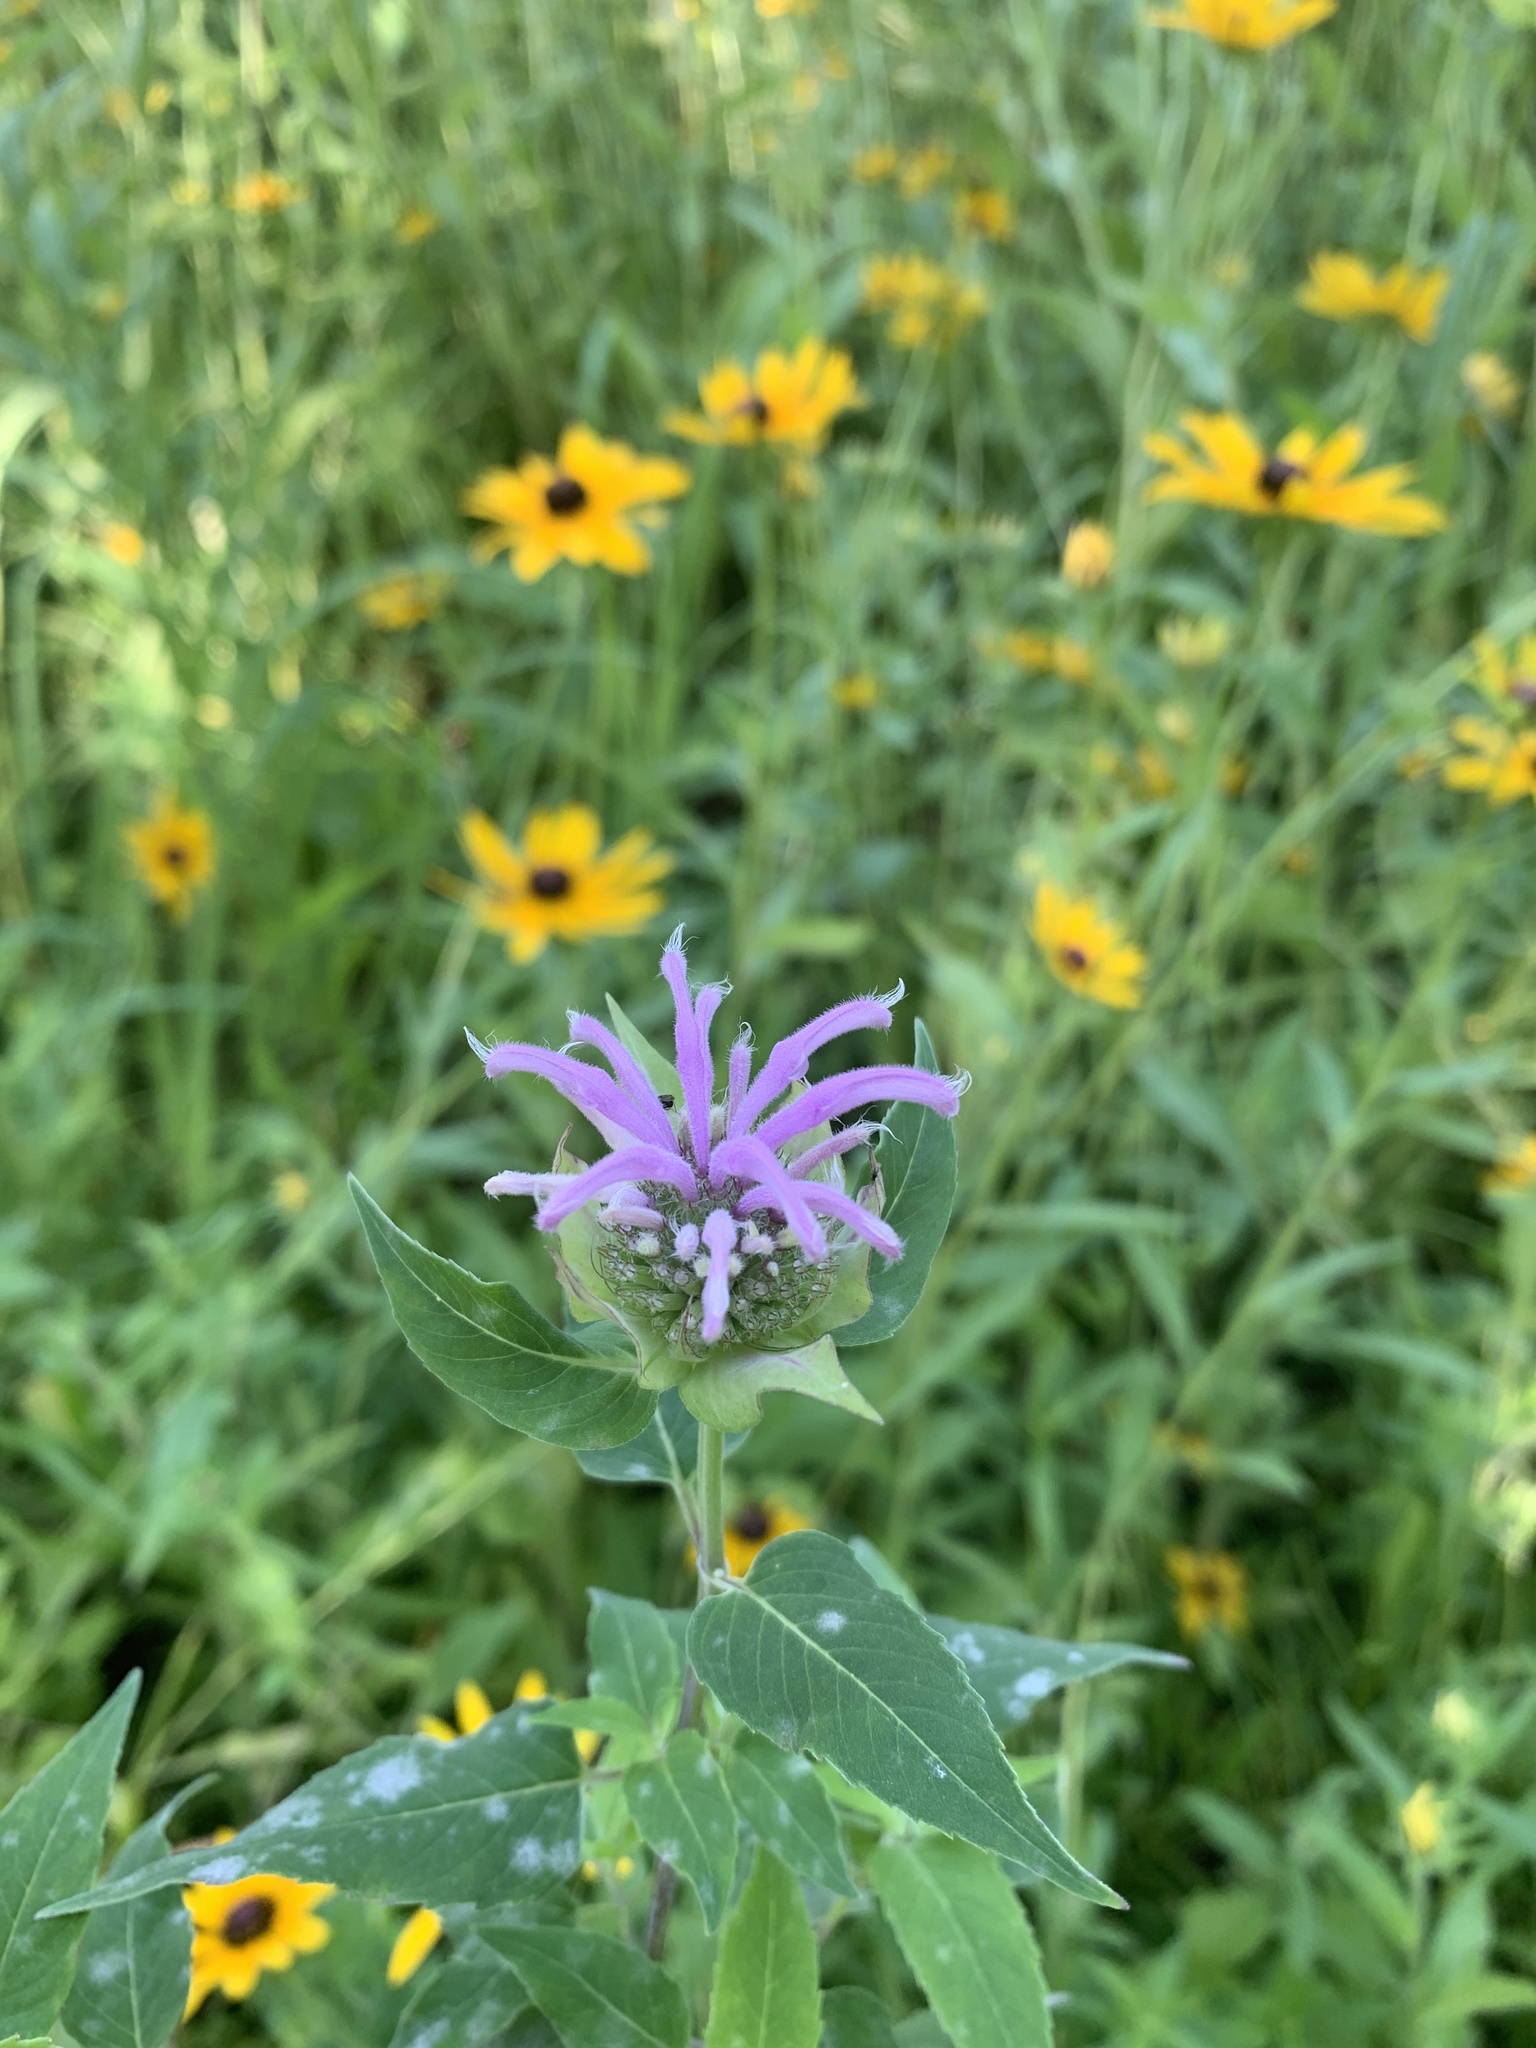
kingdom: Plantae
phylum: Tracheophyta
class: Magnoliopsida
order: Lamiales
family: Lamiaceae
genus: Monarda
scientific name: Monarda fistulosa
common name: Purple beebalm
